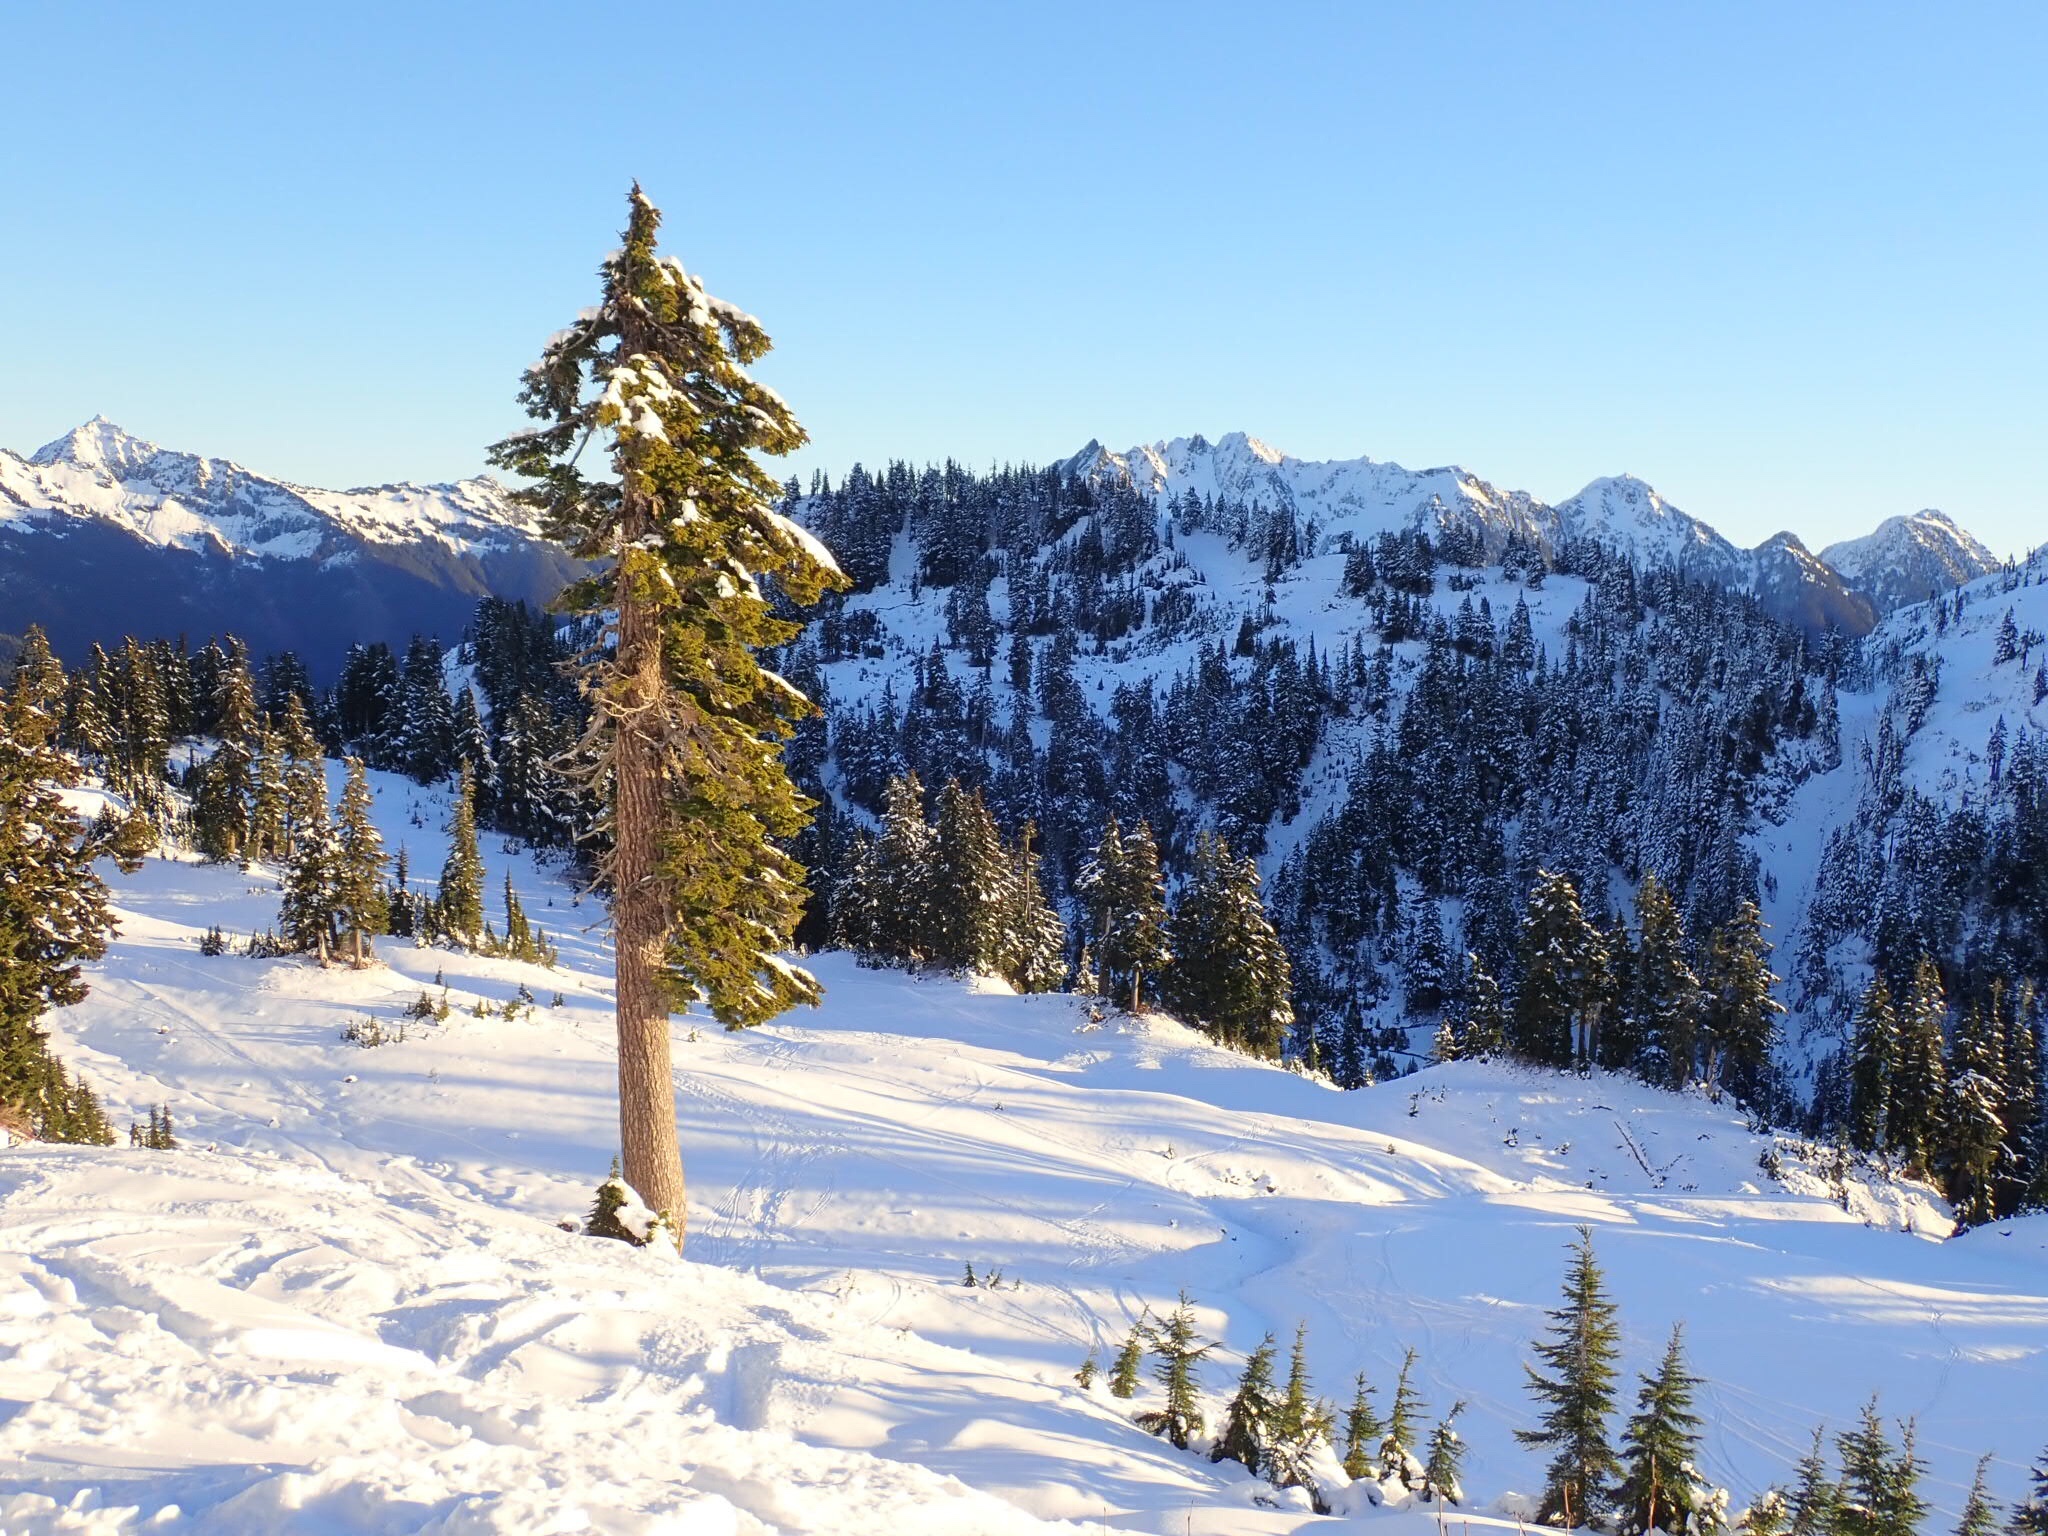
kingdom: Plantae
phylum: Tracheophyta
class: Pinopsida
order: Pinales
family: Pinaceae
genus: Tsuga
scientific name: Tsuga mertensiana
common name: Mountain hemlock
